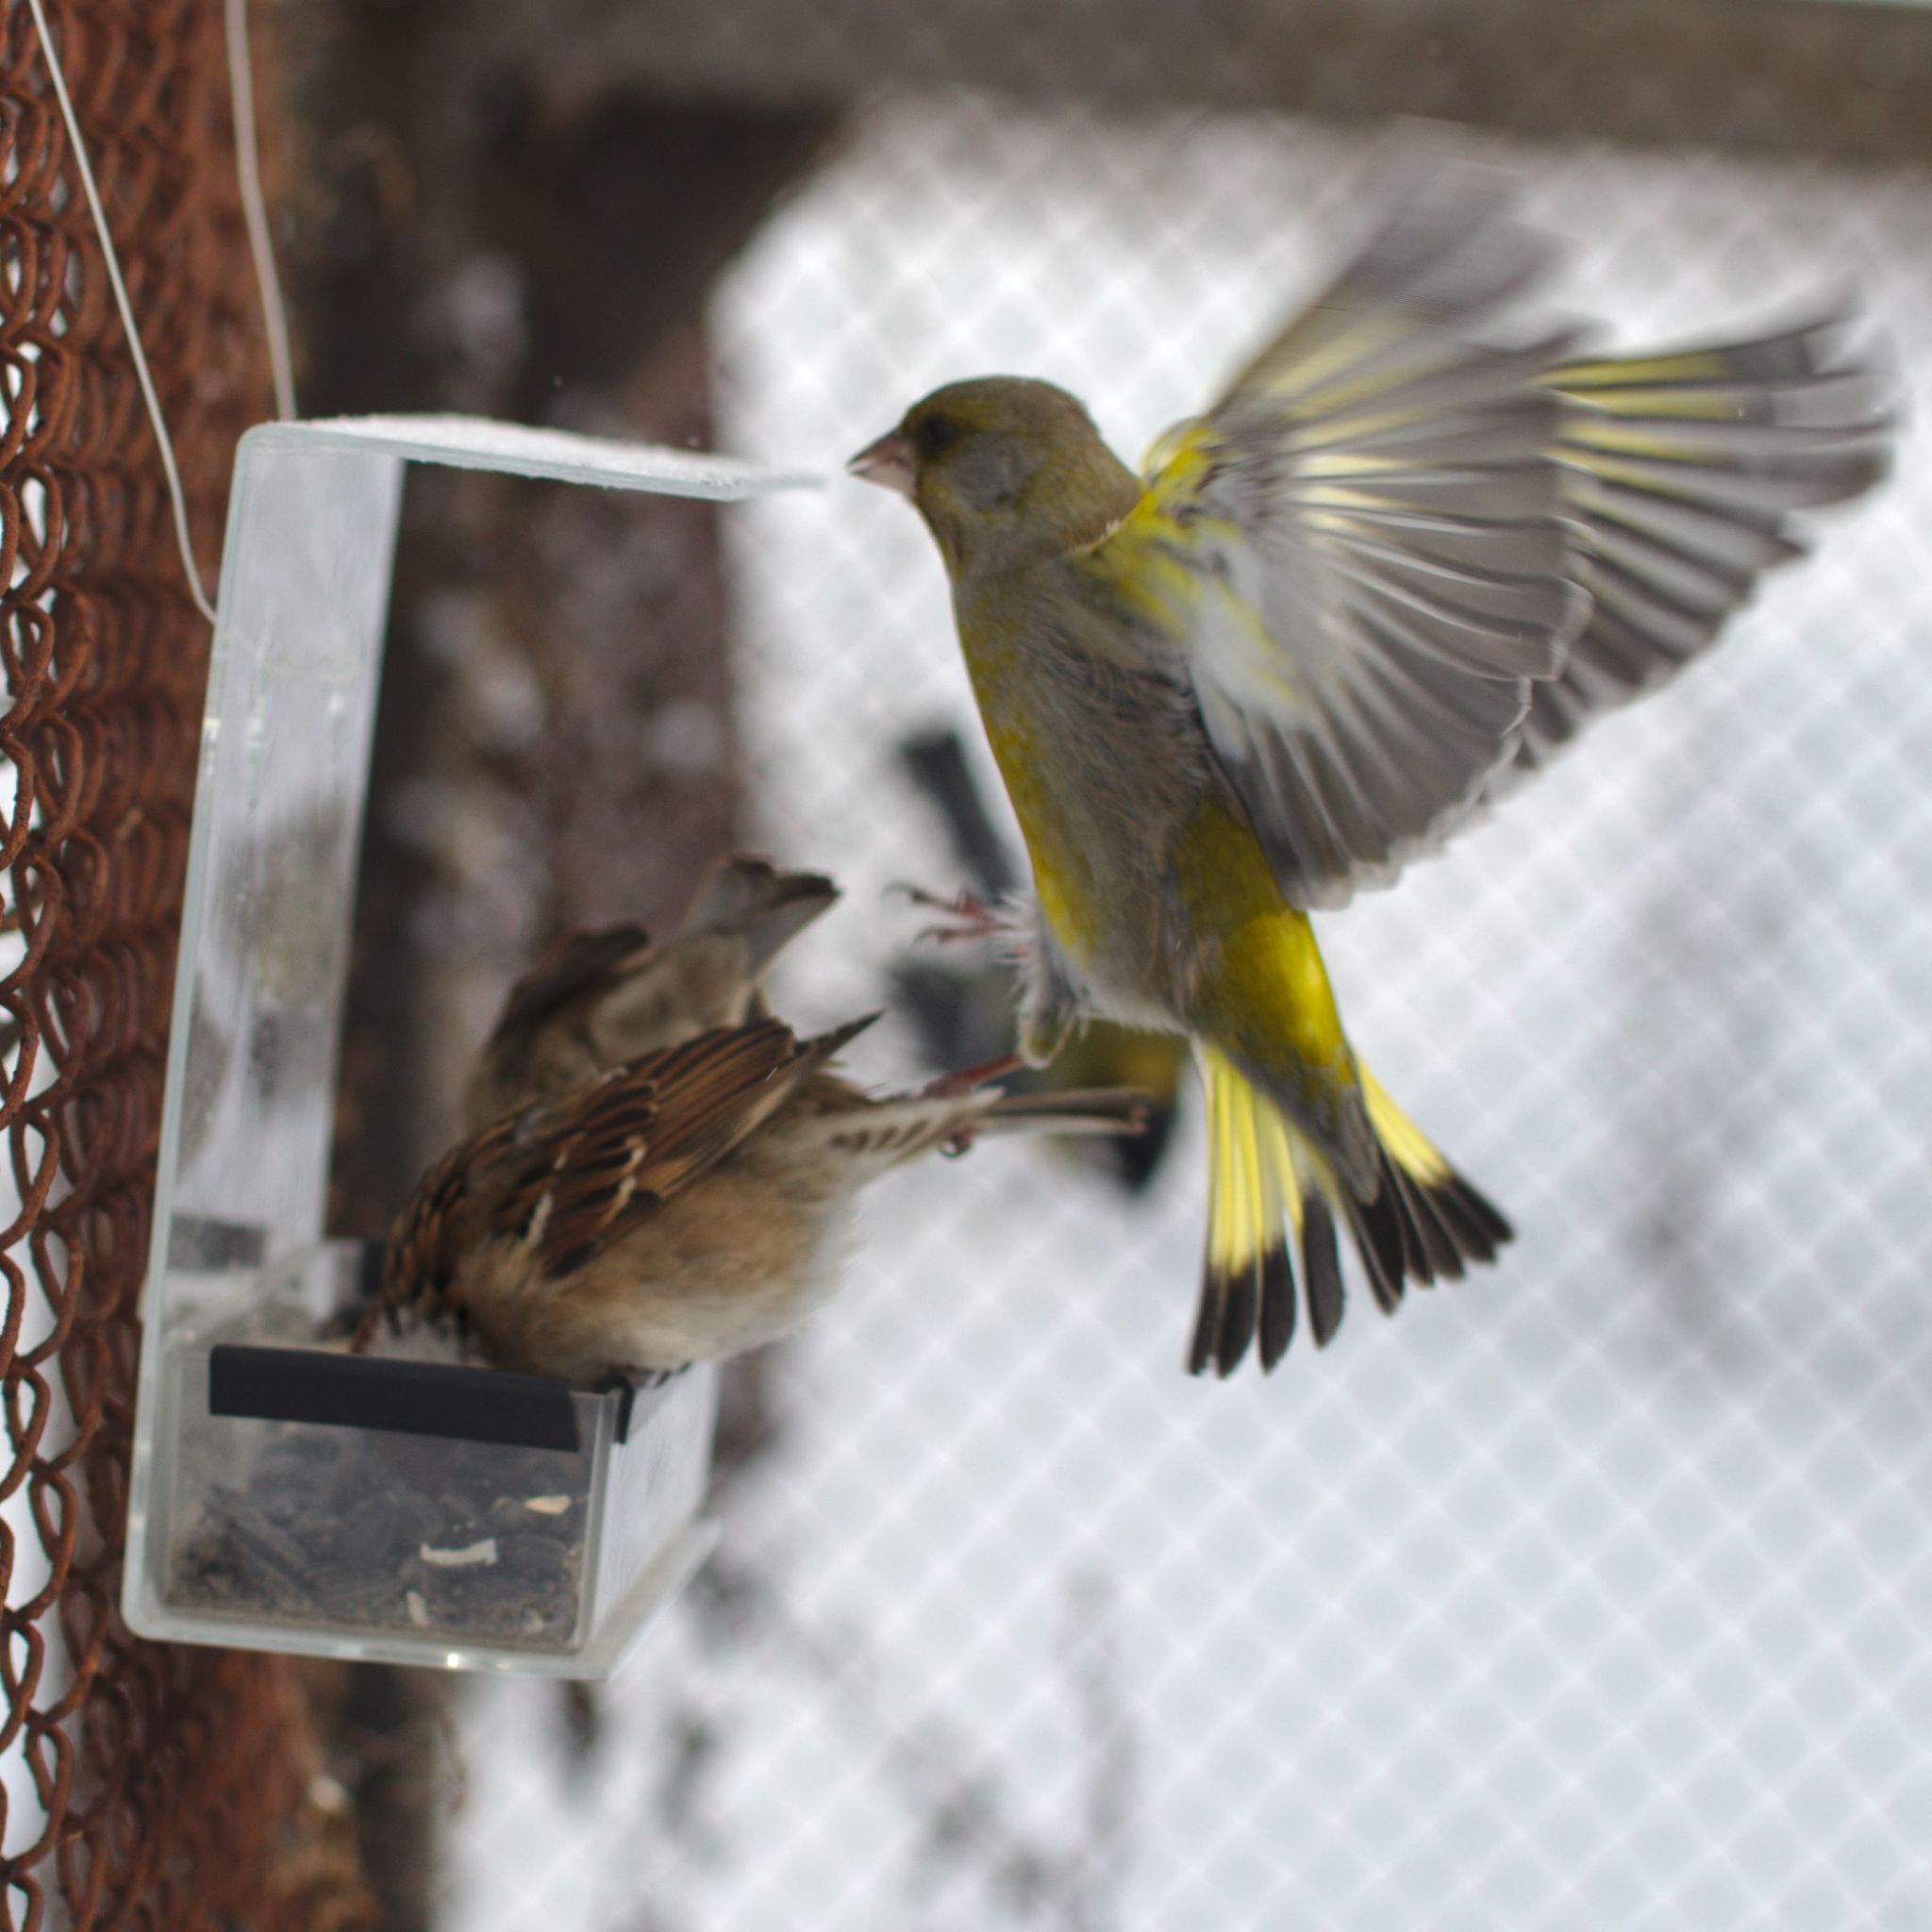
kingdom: Plantae
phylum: Tracheophyta
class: Liliopsida
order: Poales
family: Poaceae
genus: Chloris
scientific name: Chloris chloris
